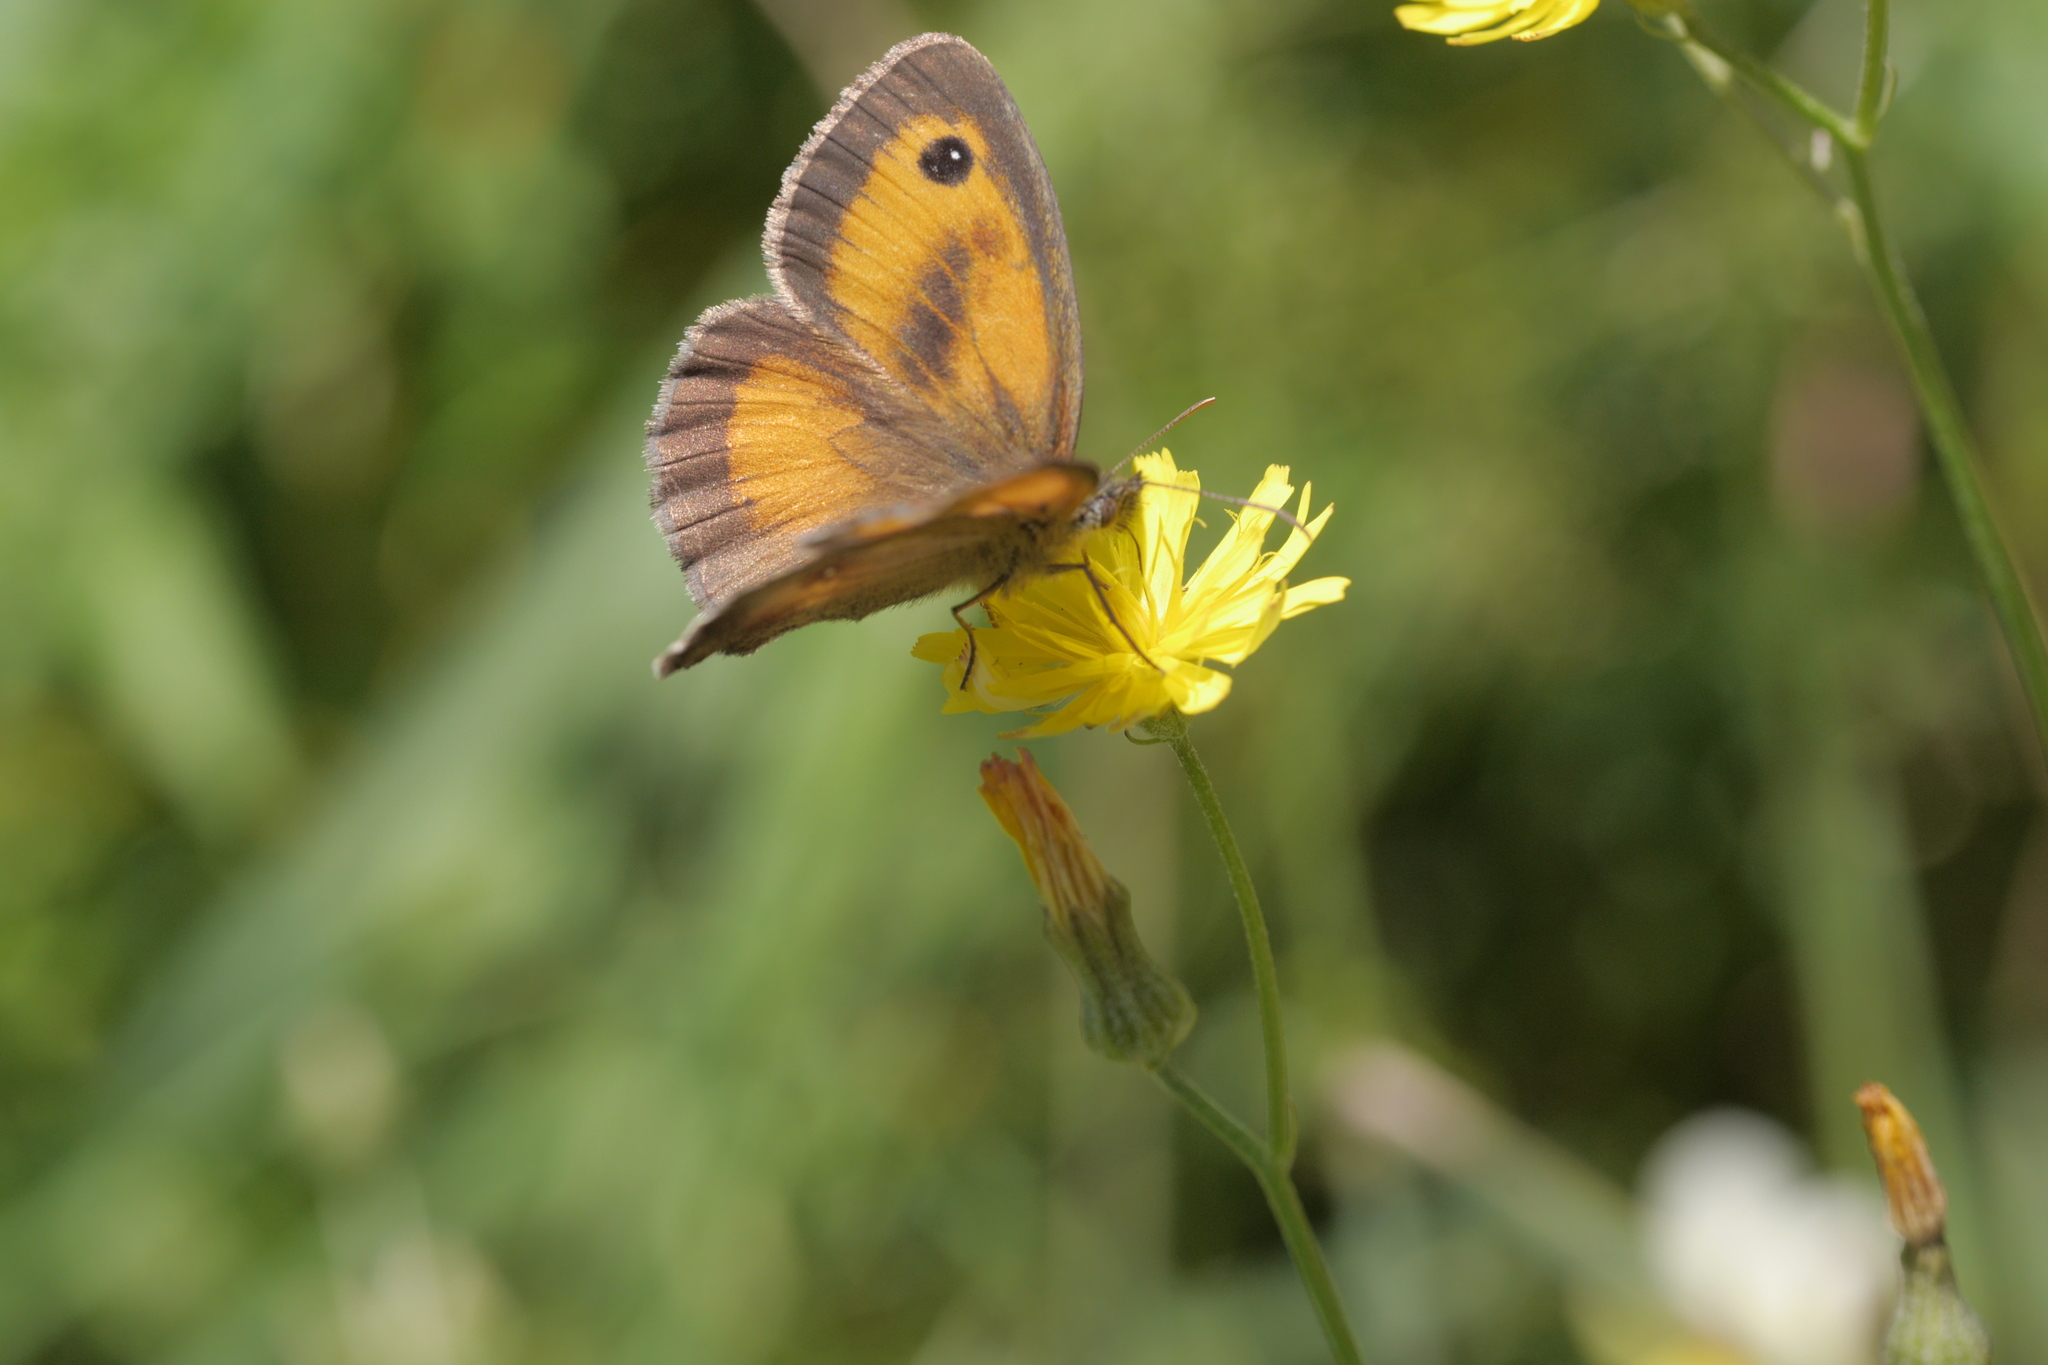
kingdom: Animalia
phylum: Arthropoda
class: Insecta
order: Lepidoptera
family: Nymphalidae
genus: Pyronia
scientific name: Pyronia tithonus
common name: Gatekeeper
